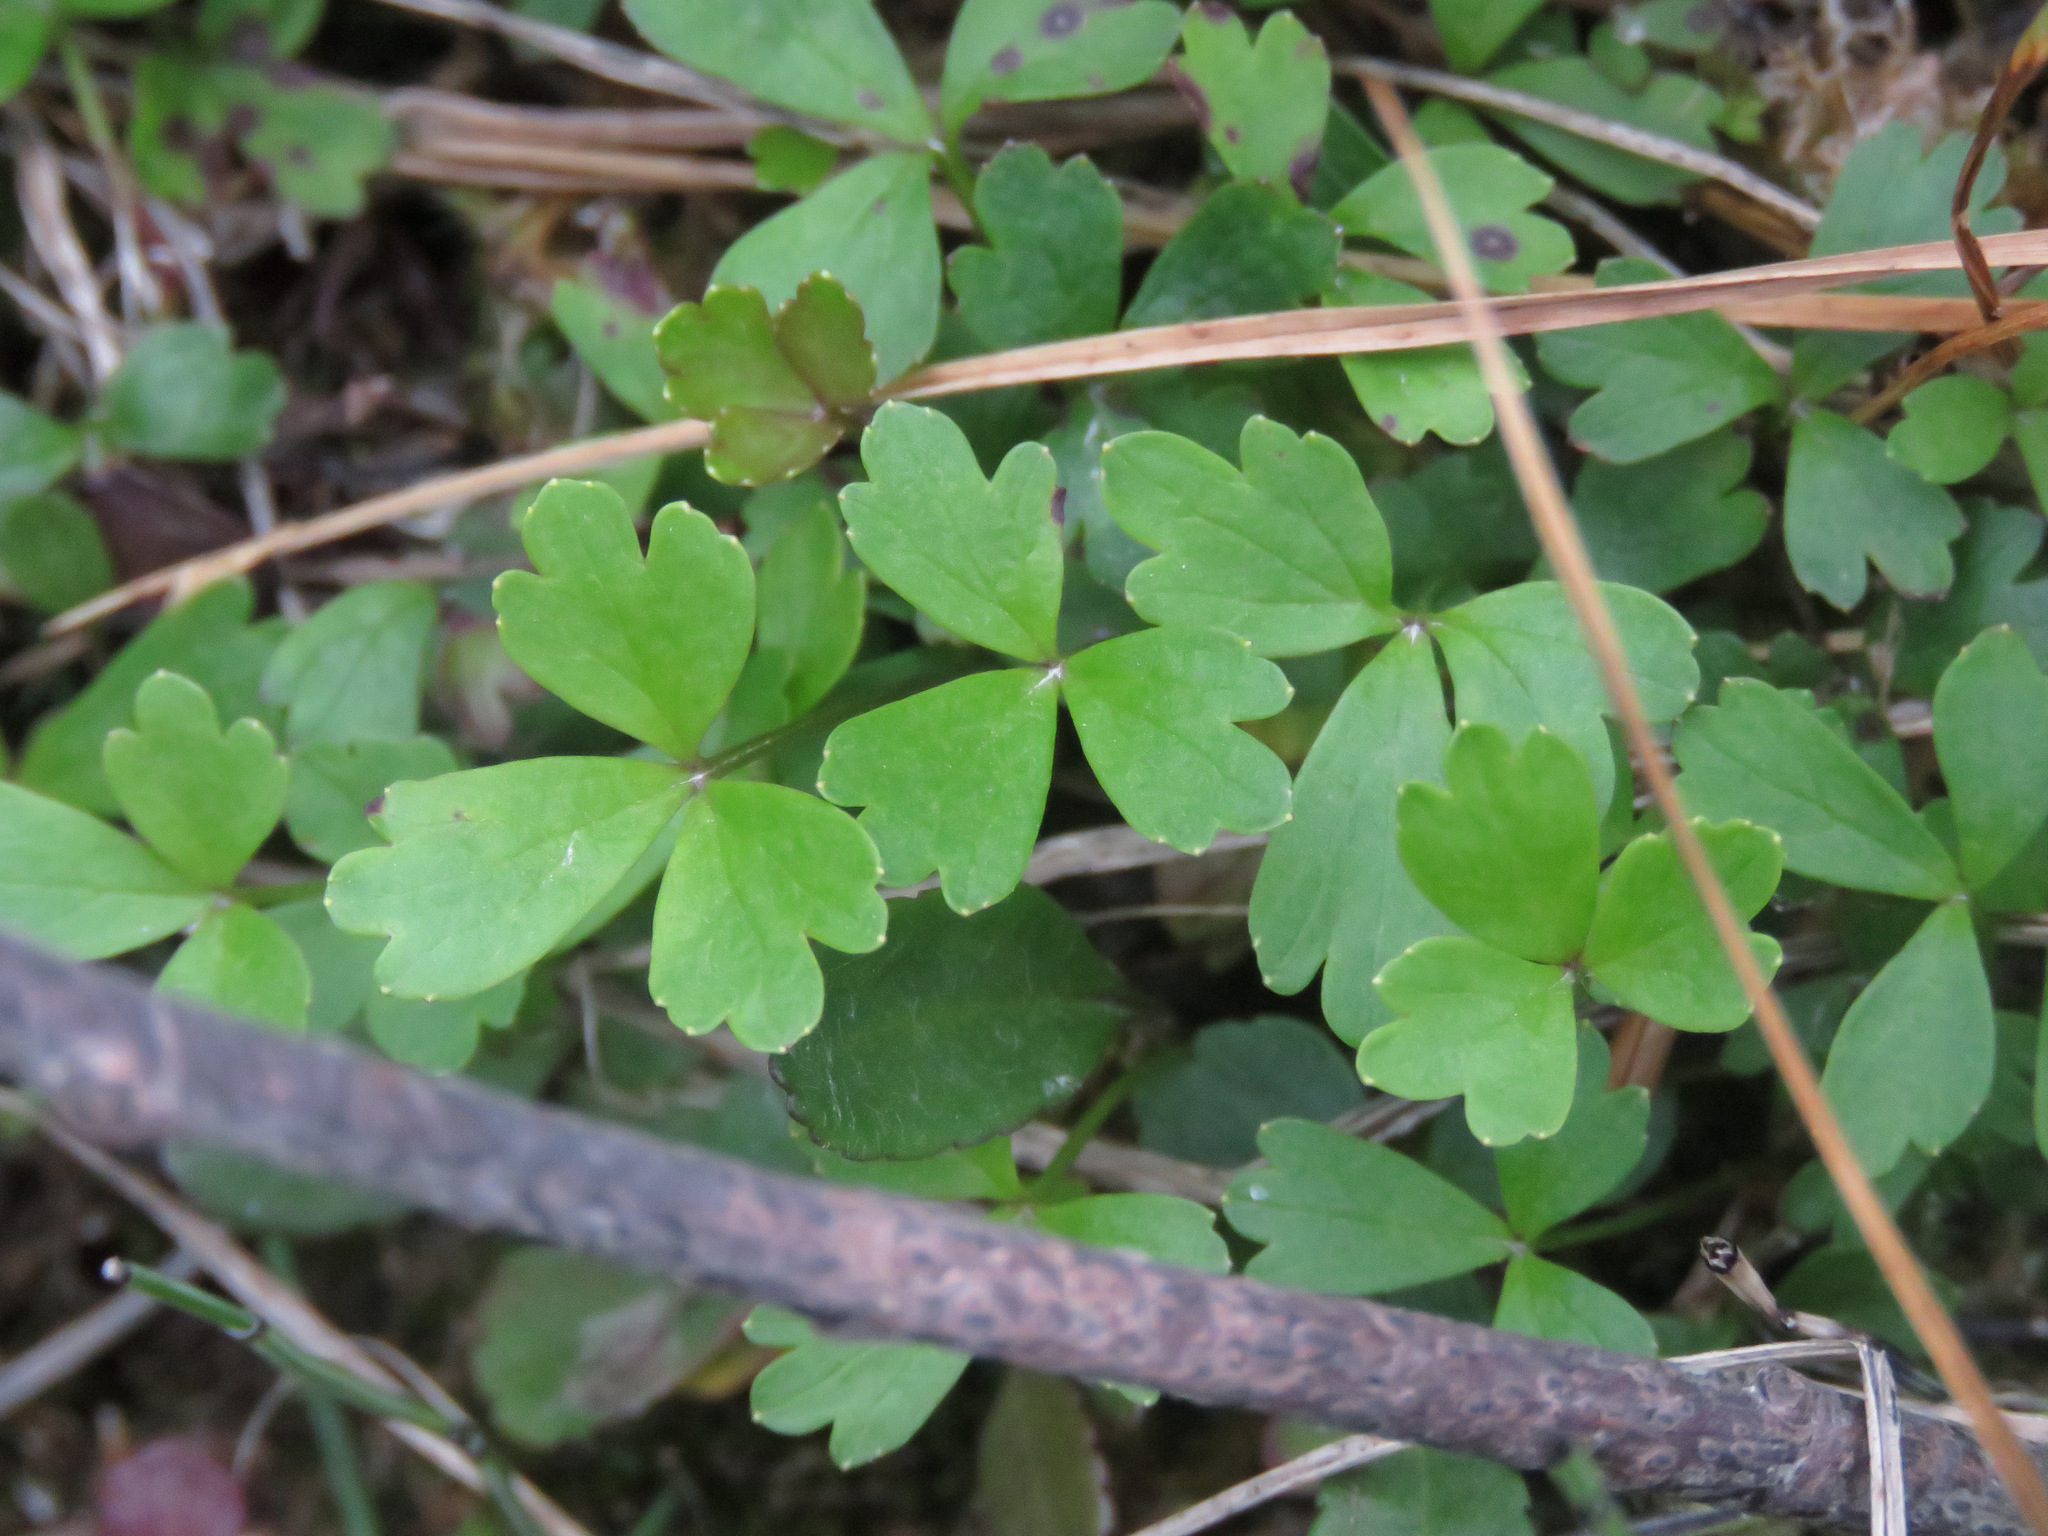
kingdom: Plantae
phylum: Tracheophyta
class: Magnoliopsida
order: Ranunculales
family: Ranunculaceae
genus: Anemone
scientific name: Anemone parviflora
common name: Northern anemone
